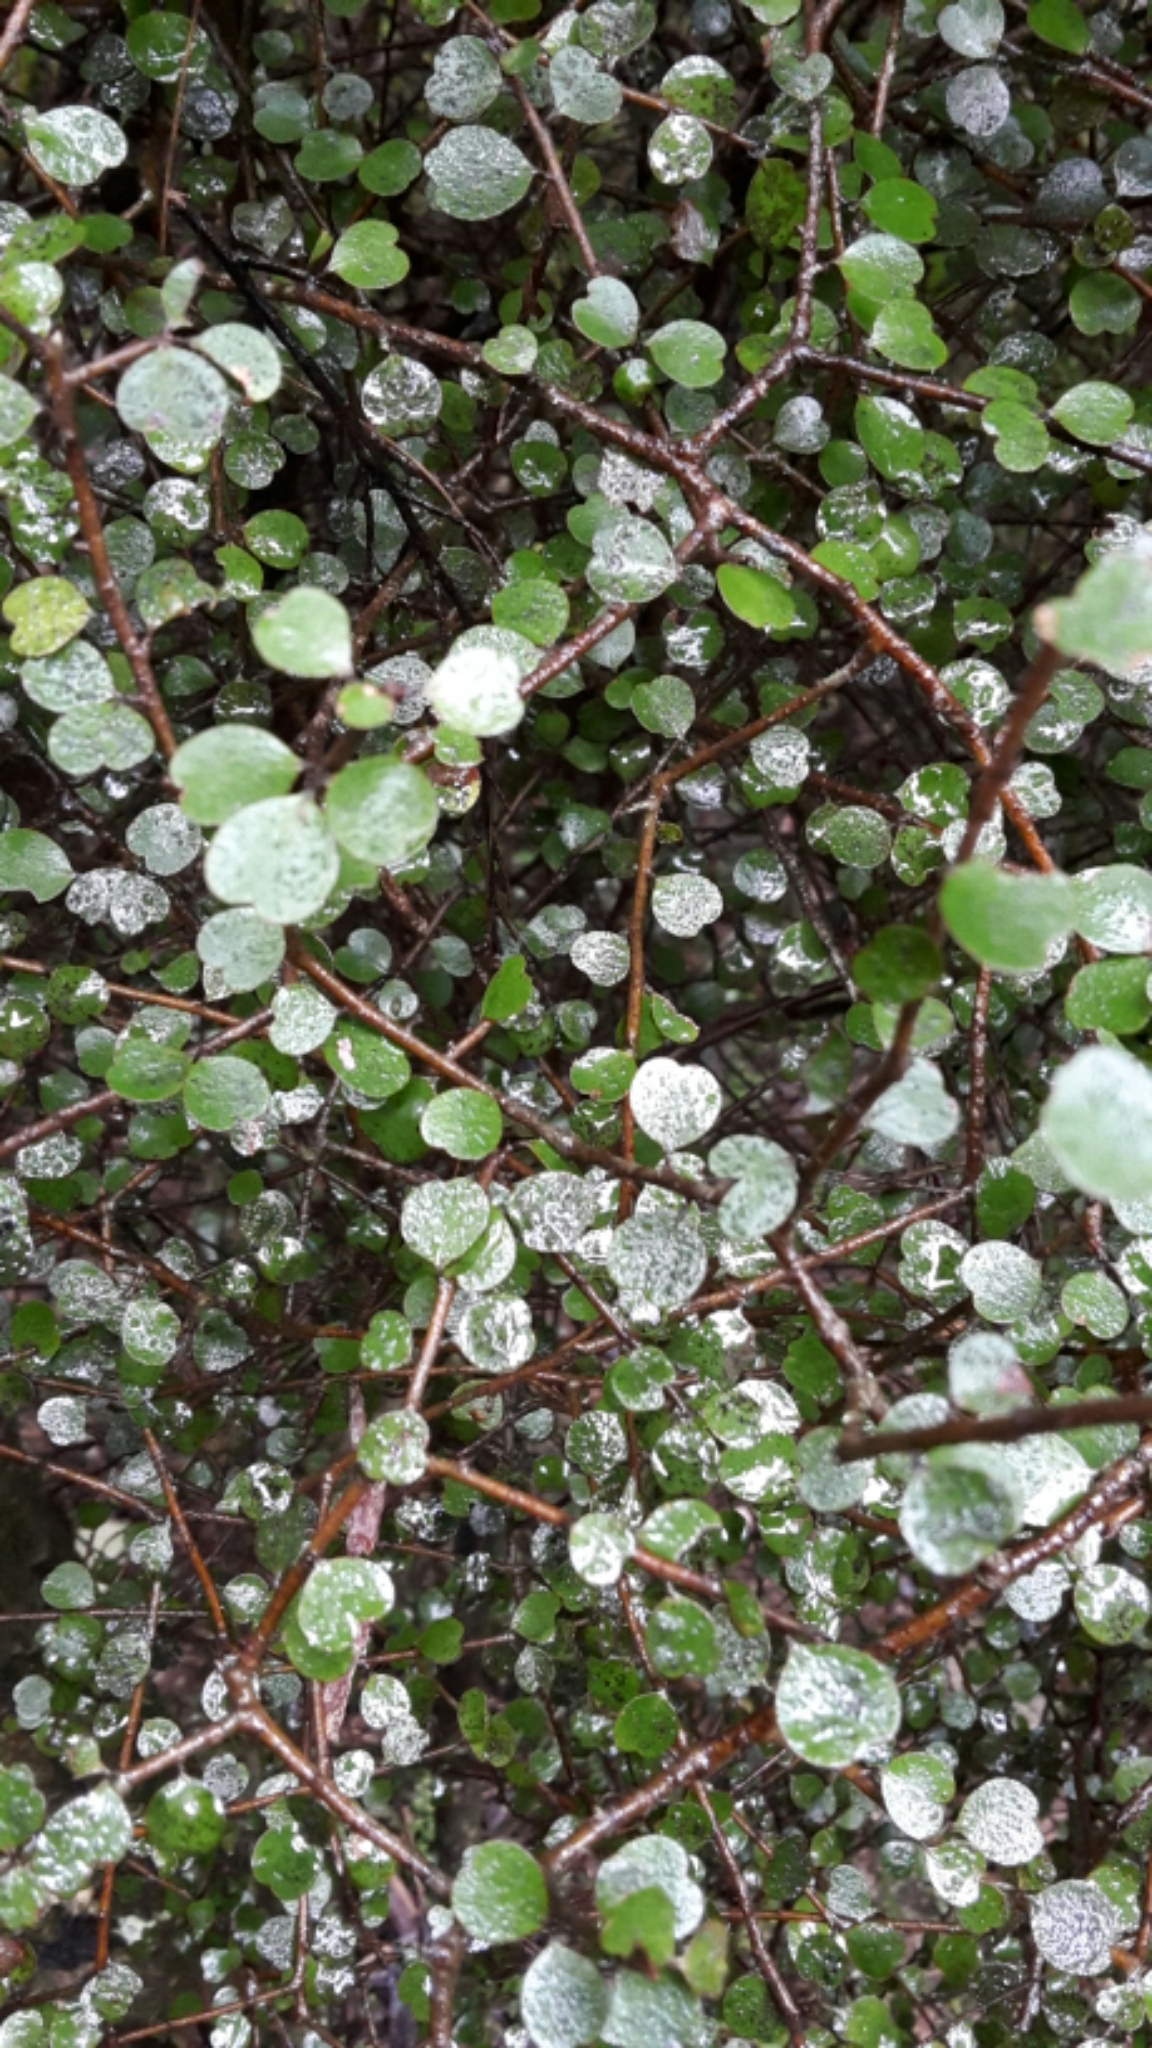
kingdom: Plantae
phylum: Tracheophyta
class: Magnoliopsida
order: Ericales
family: Primulaceae
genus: Myrsine
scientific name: Myrsine divaricata
